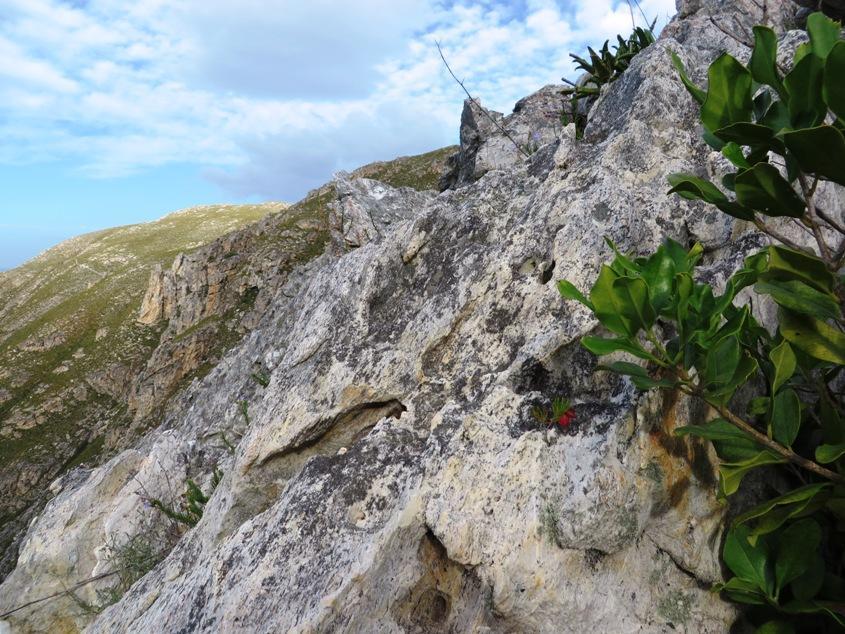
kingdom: Plantae
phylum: Tracheophyta
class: Magnoliopsida
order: Ericales
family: Ericaceae
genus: Erica
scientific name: Erica lanuginosa
